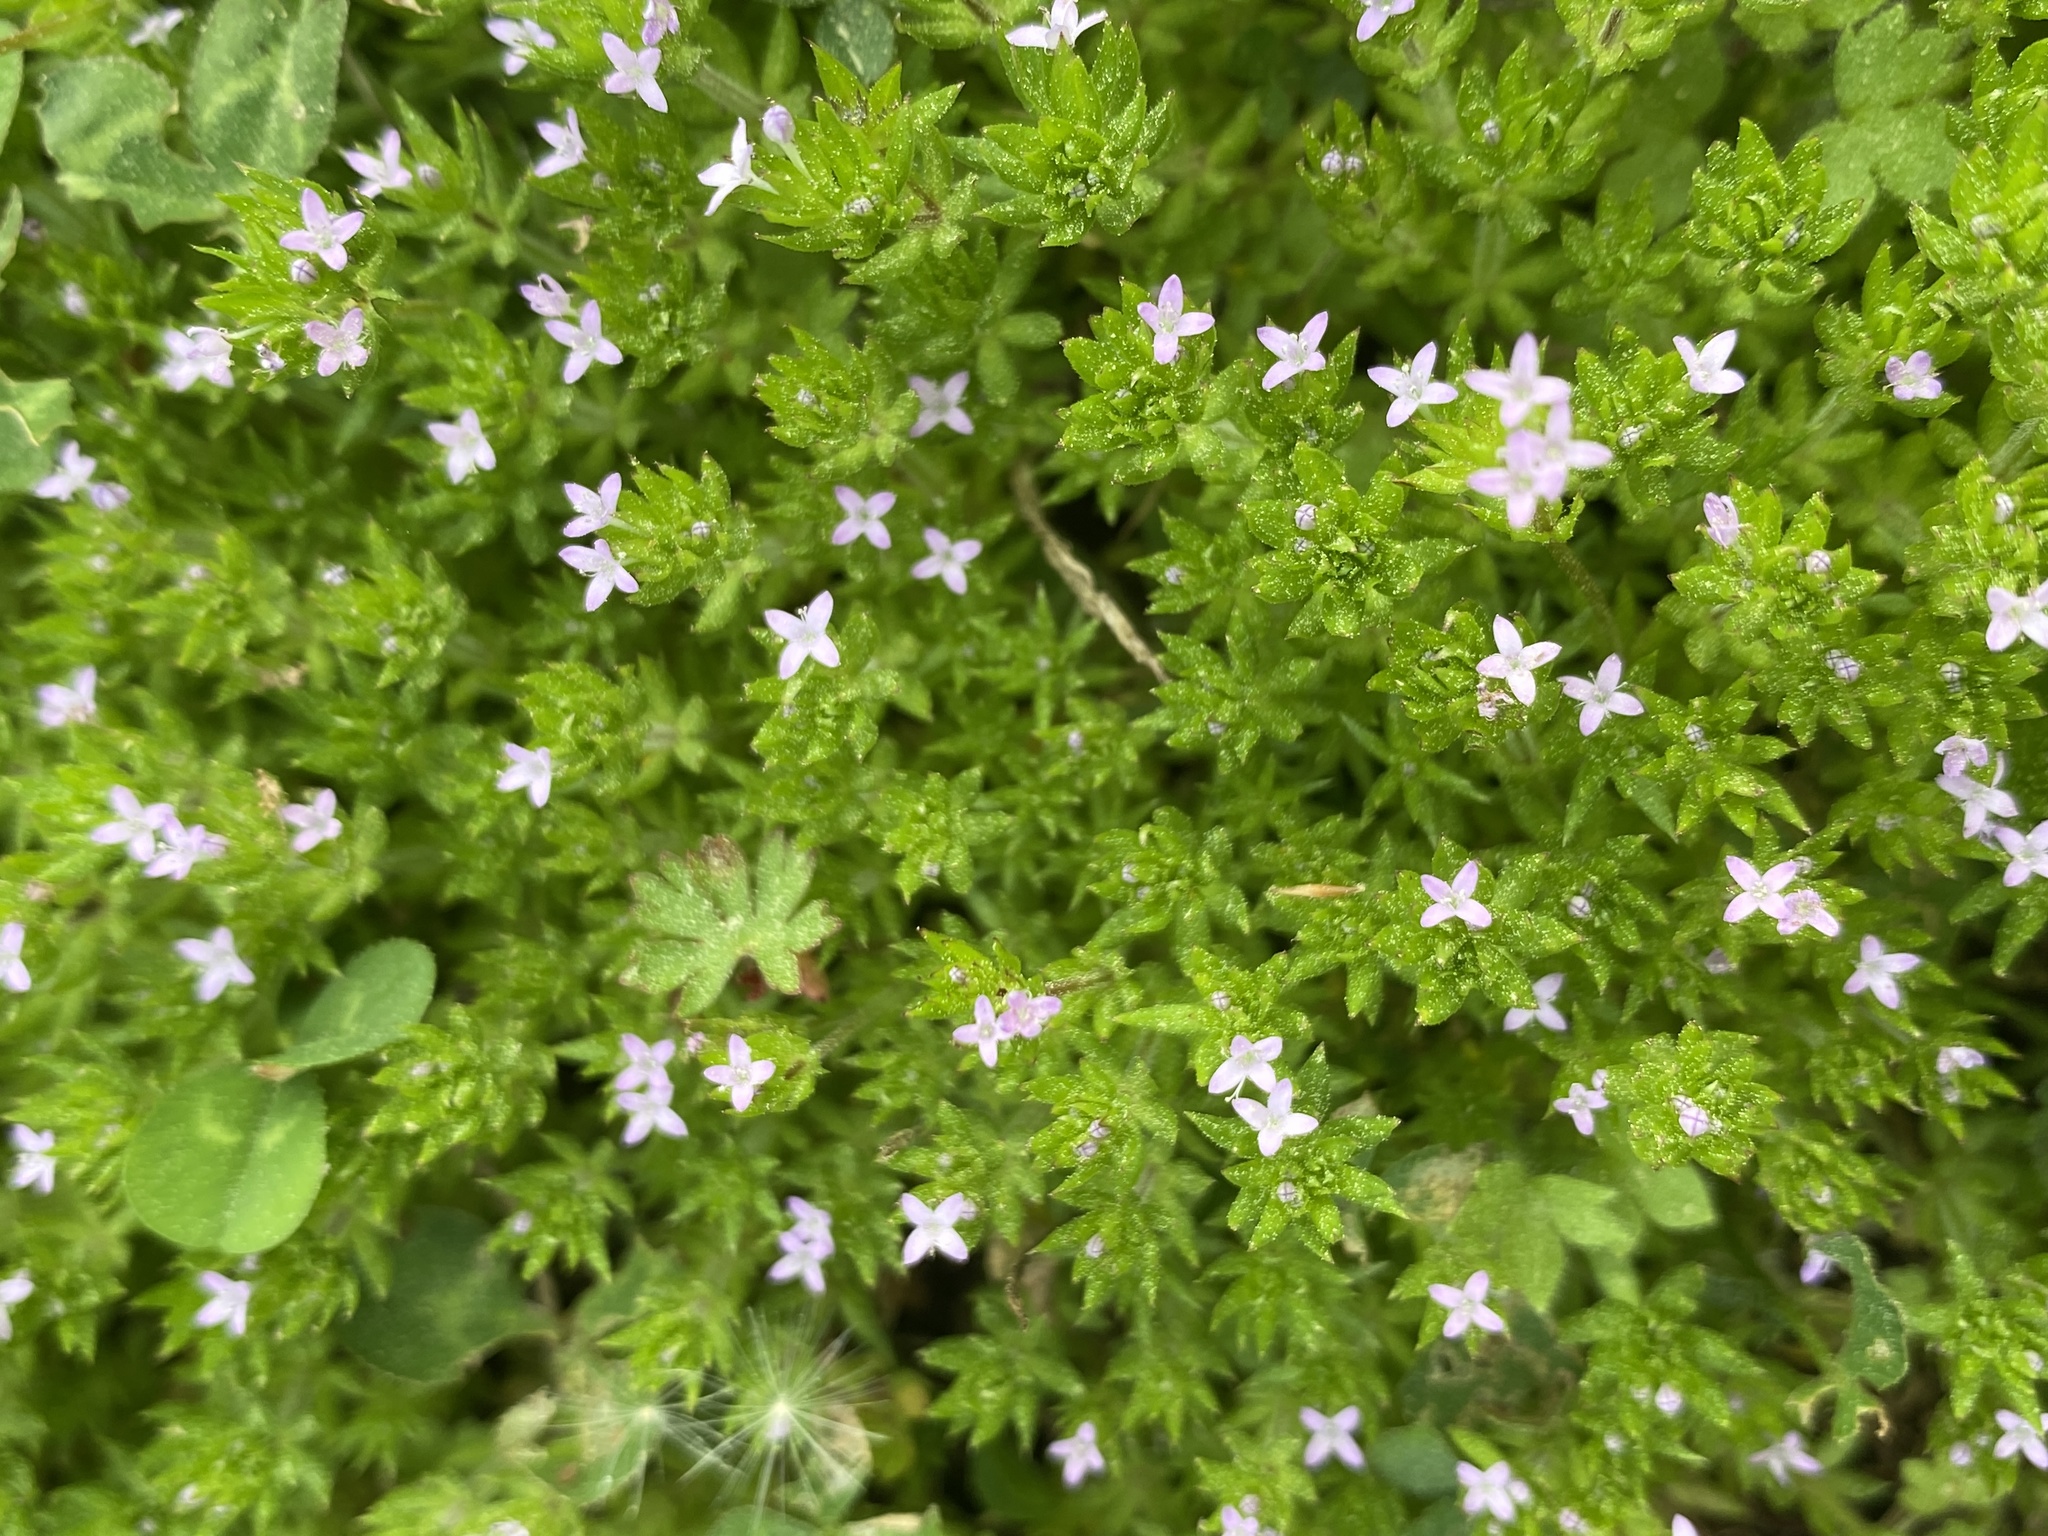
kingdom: Plantae
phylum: Tracheophyta
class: Magnoliopsida
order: Gentianales
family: Rubiaceae
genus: Sherardia
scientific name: Sherardia arvensis
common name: Field madder
